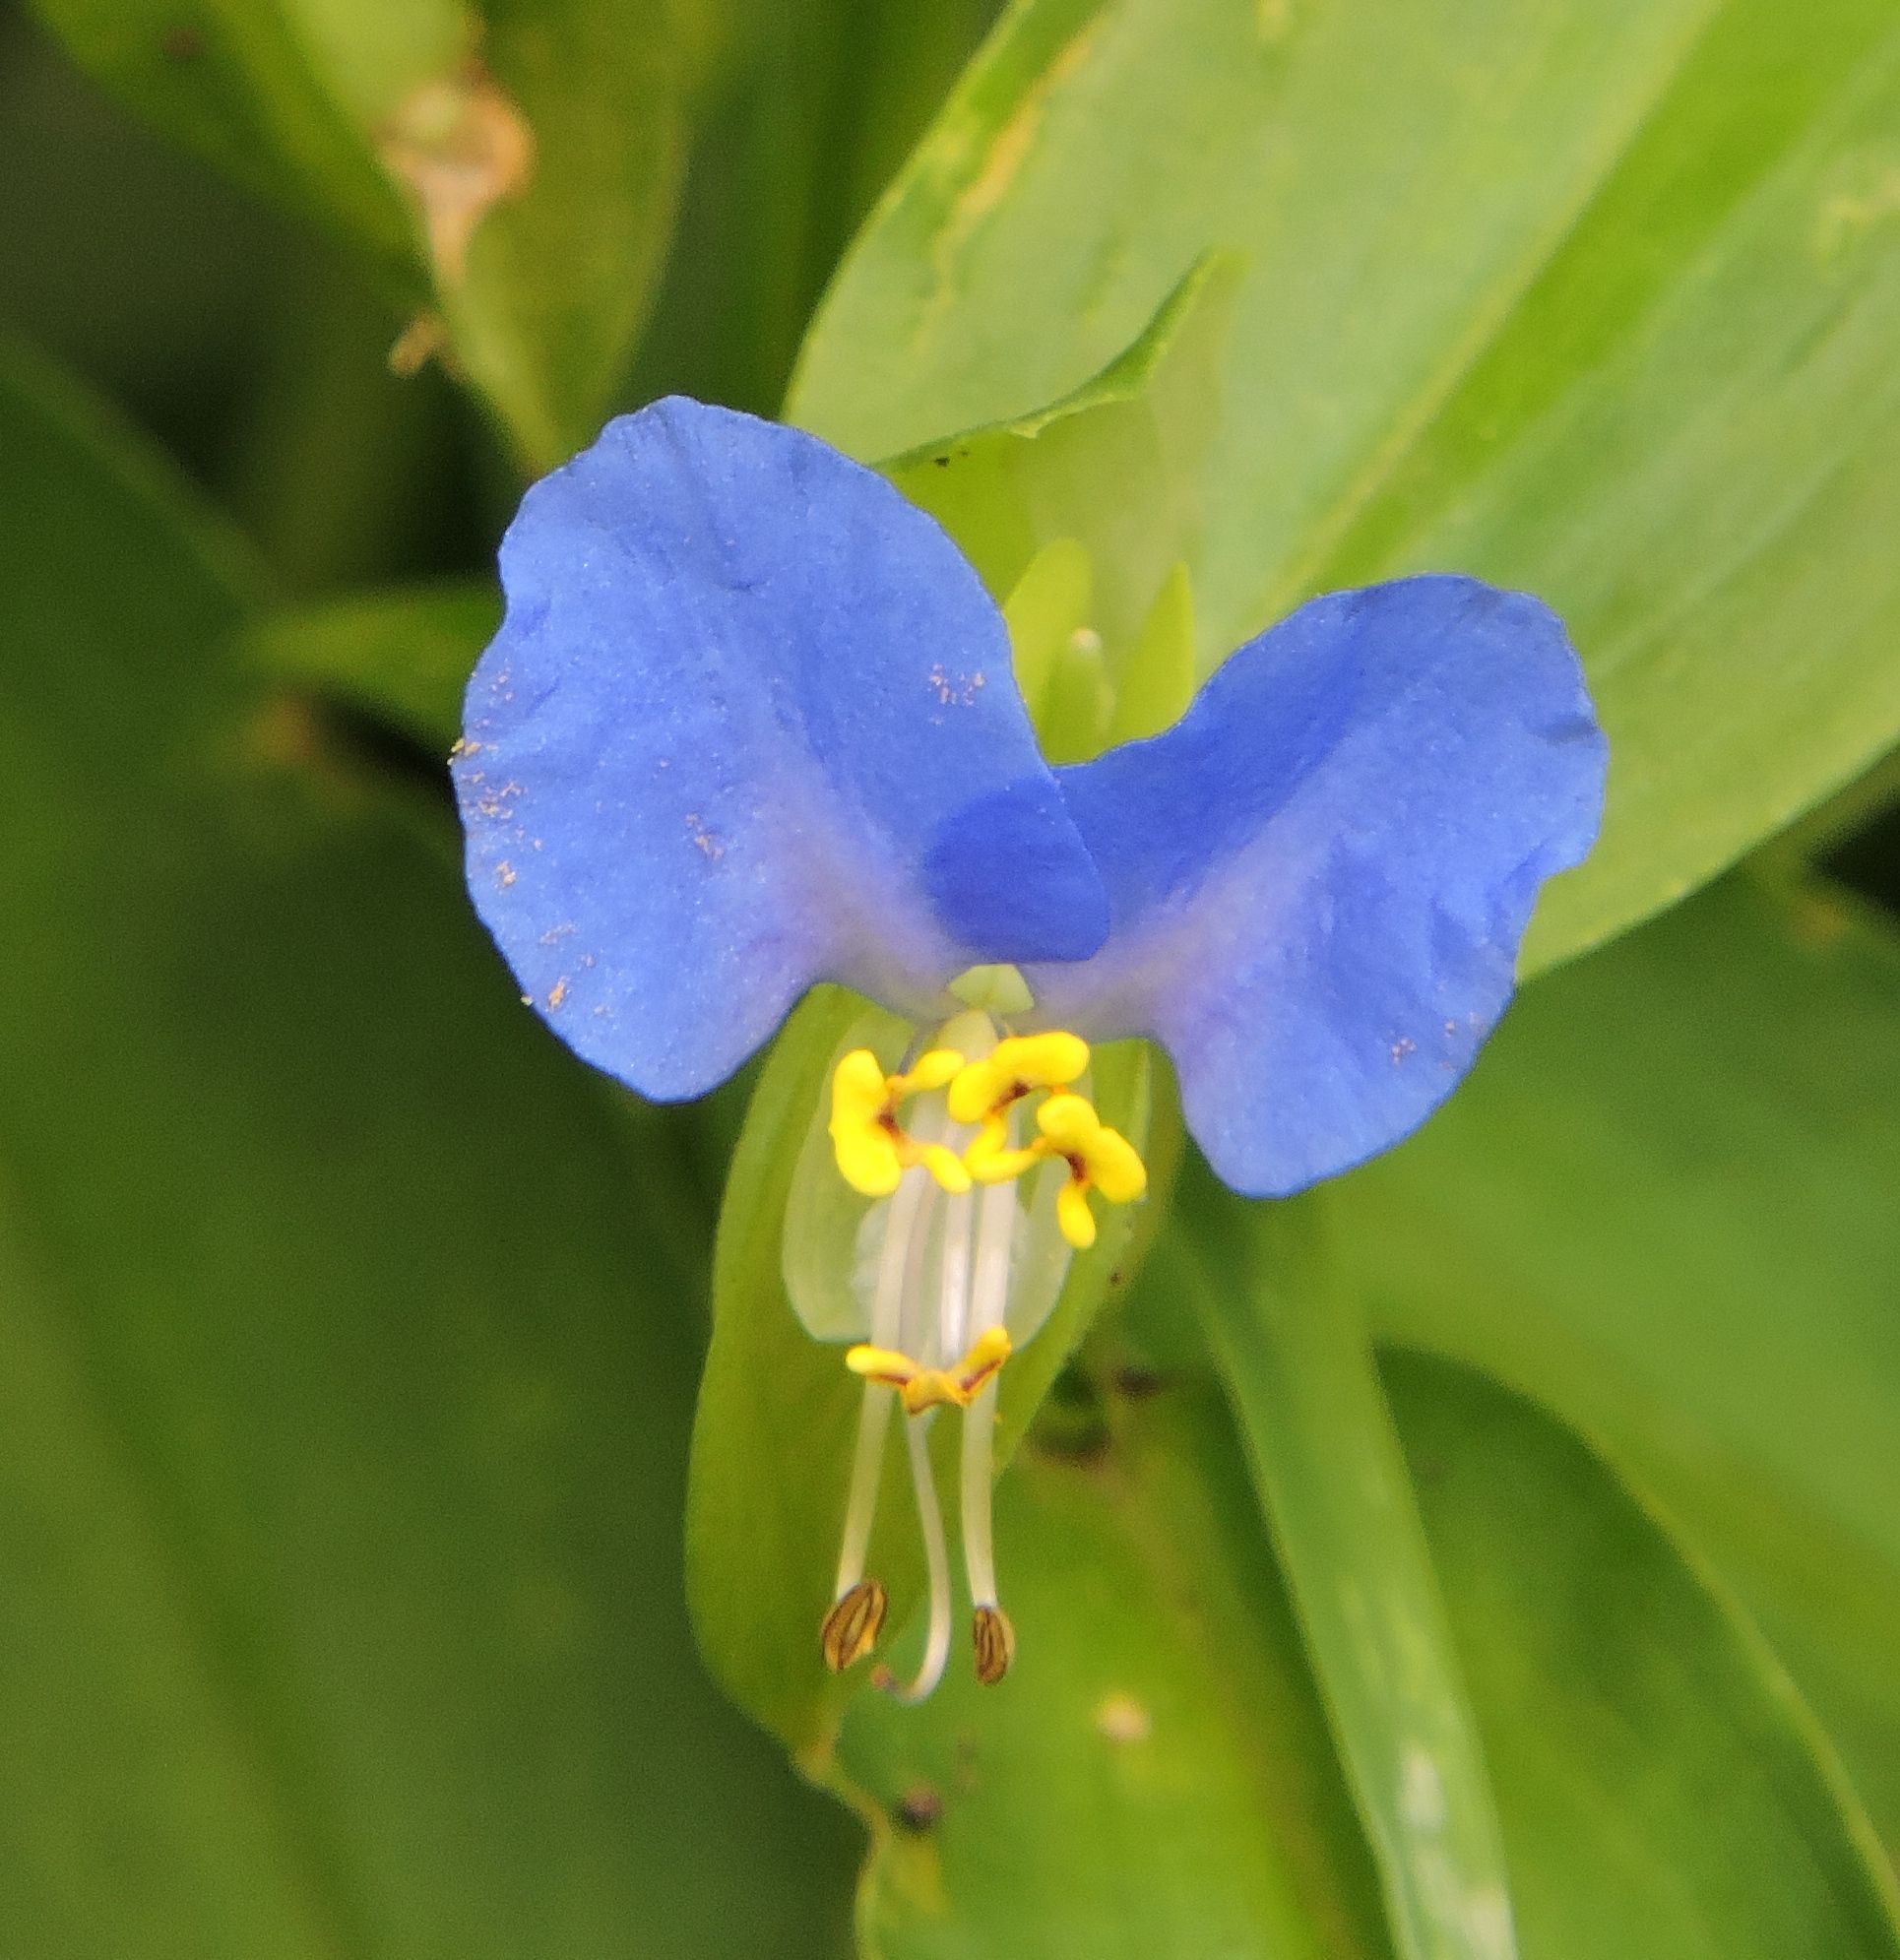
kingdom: Plantae
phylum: Tracheophyta
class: Liliopsida
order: Commelinales
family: Commelinaceae
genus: Commelina
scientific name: Commelina communis
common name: Asiatic dayflower
